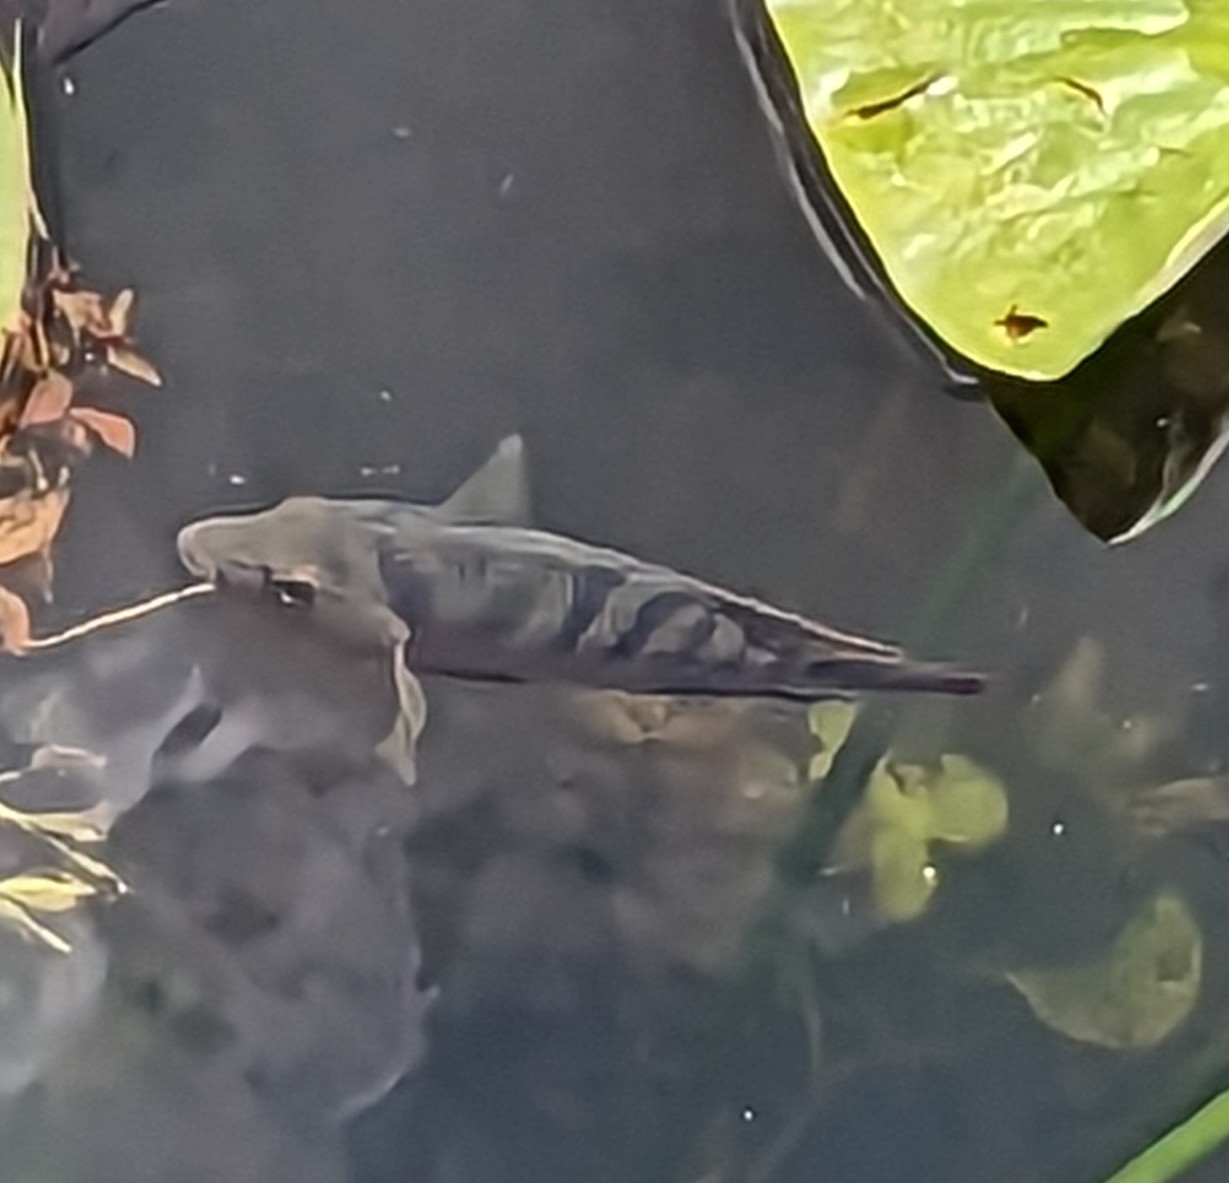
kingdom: Animalia
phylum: Chordata
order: Perciformes
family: Cichlidae
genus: Mayaheros
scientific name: Mayaheros urophthalmus
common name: Mayan cichlid
